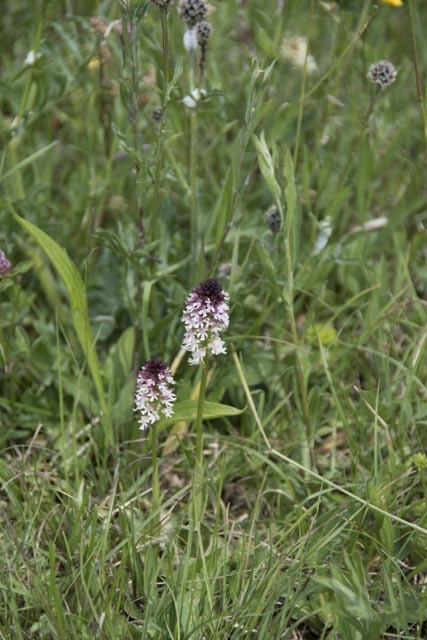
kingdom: Plantae
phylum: Tracheophyta
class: Liliopsida
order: Asparagales
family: Orchidaceae
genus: Neotinea
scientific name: Neotinea ustulata
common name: Burnt orchid
